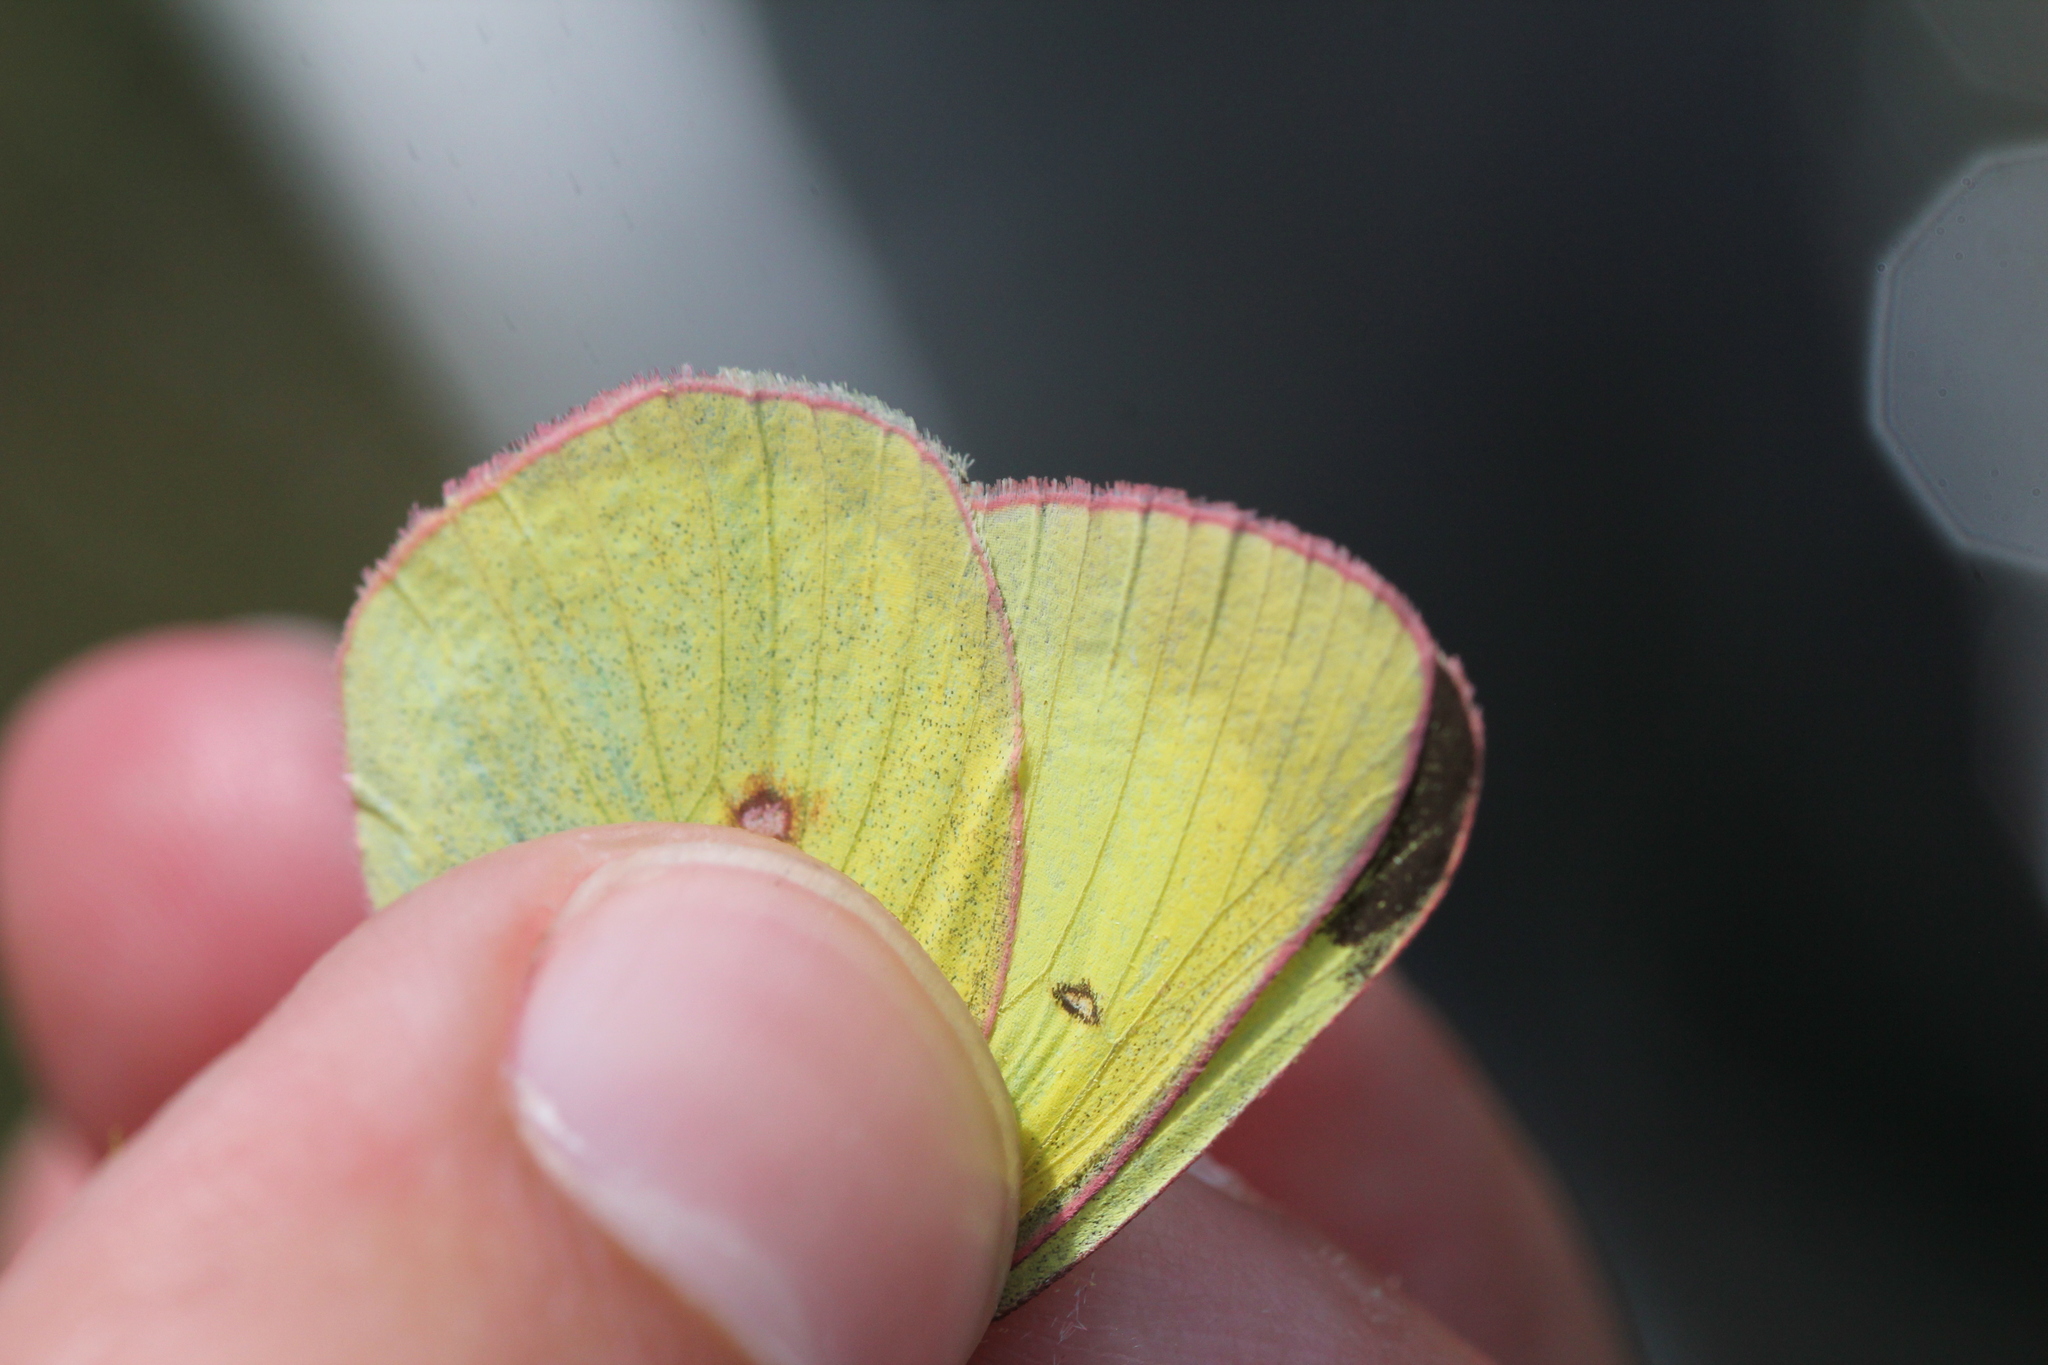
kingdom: Animalia
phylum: Arthropoda
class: Insecta
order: Lepidoptera
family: Pieridae
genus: Colias
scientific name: Colias interior
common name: Pink-edged sulphur
